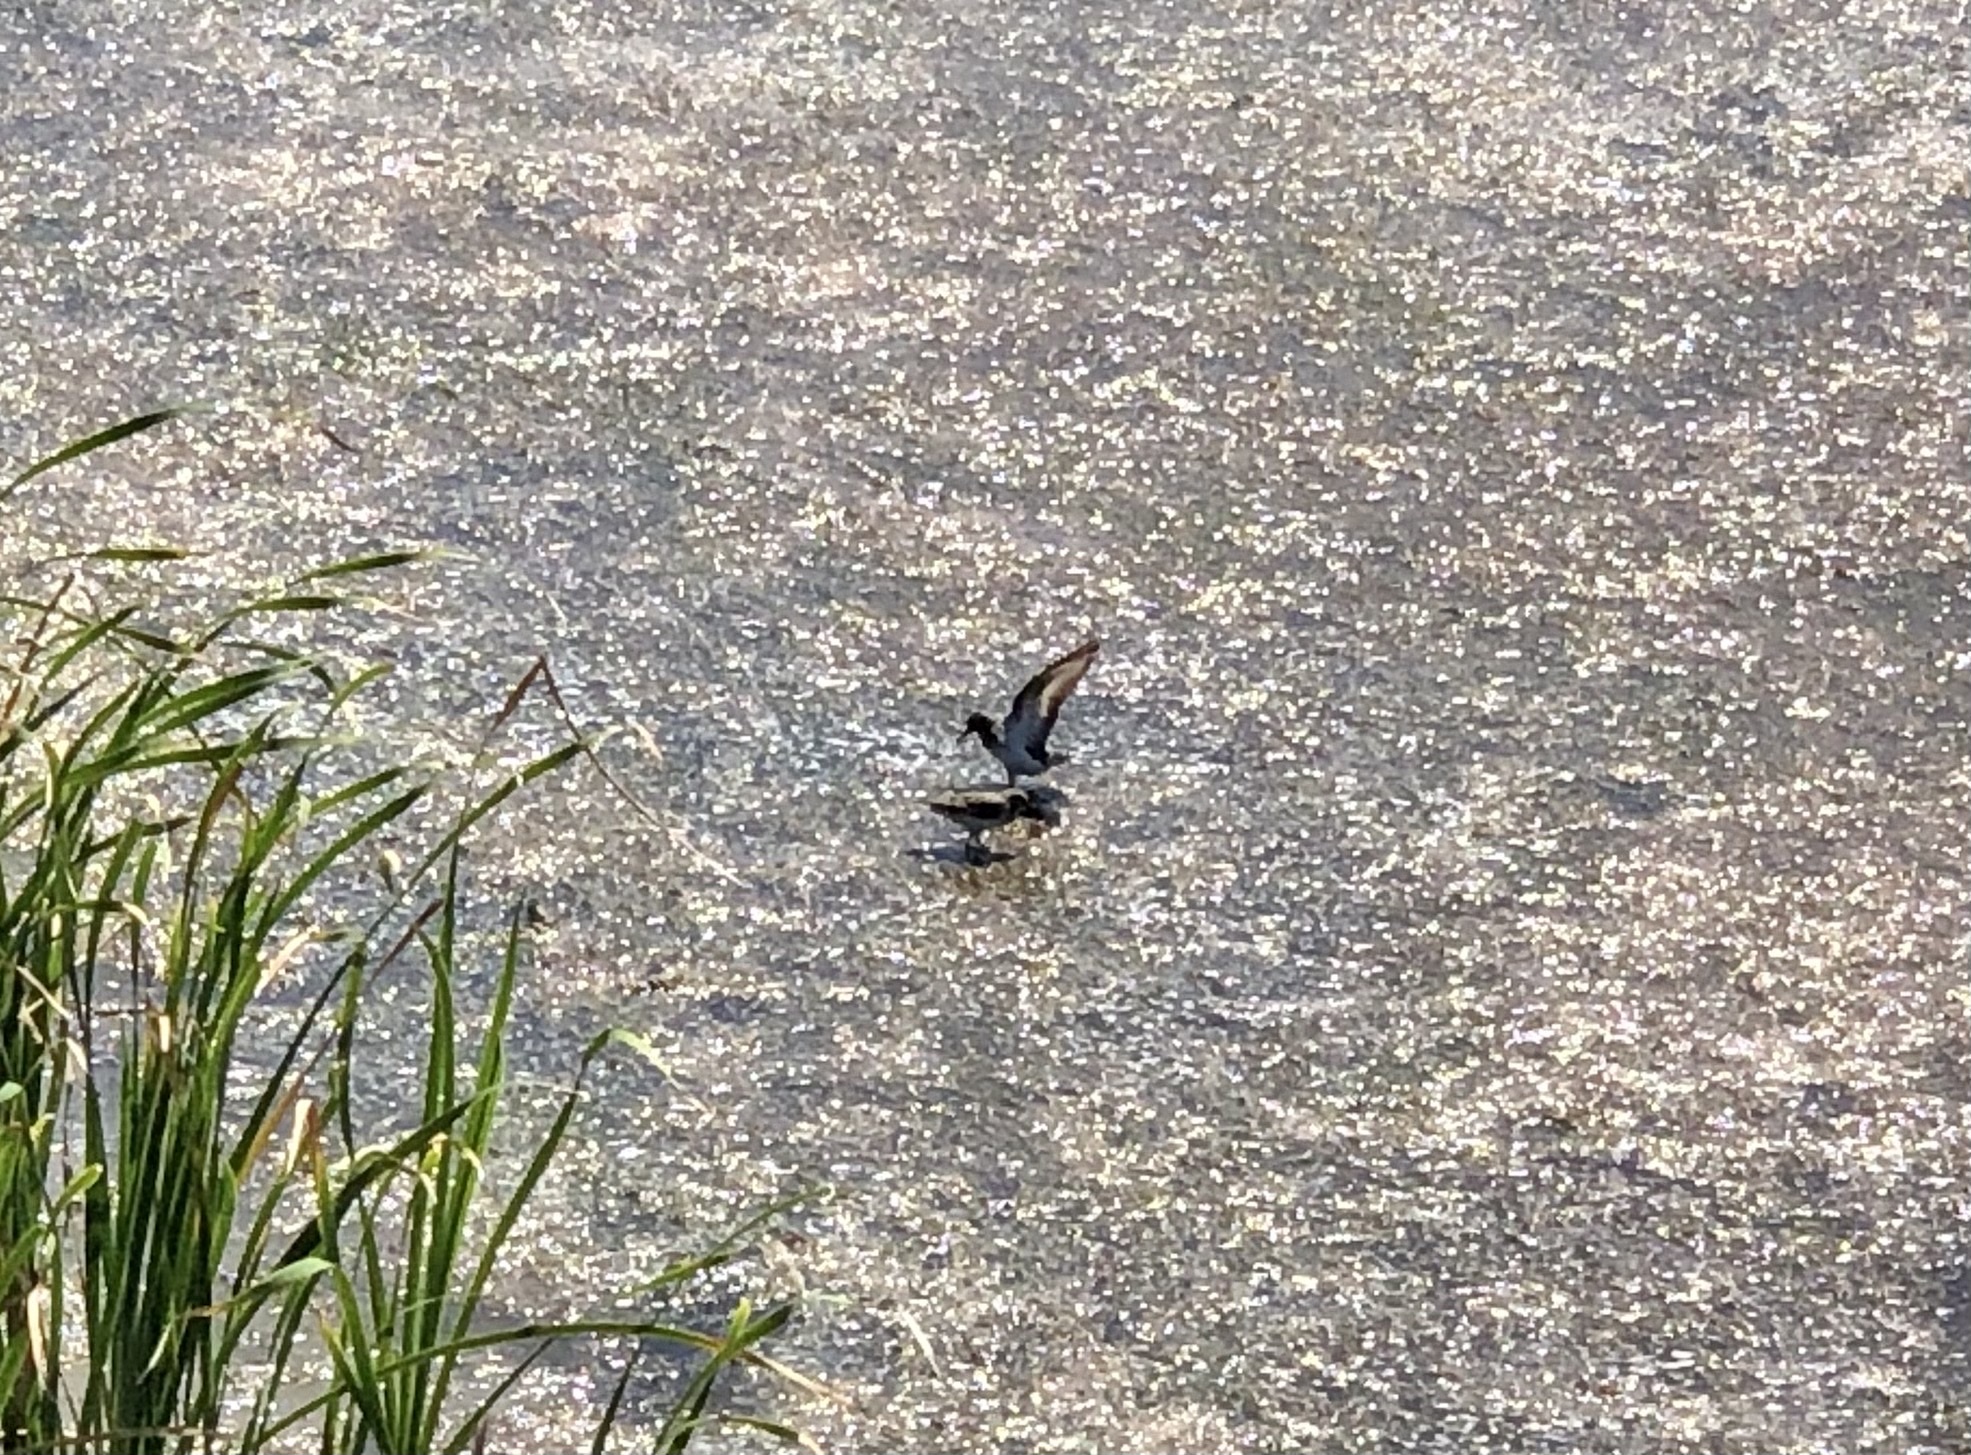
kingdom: Animalia
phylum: Chordata
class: Aves
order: Charadriiformes
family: Scolopacidae
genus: Calidris
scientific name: Calidris minutilla
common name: Least sandpiper
